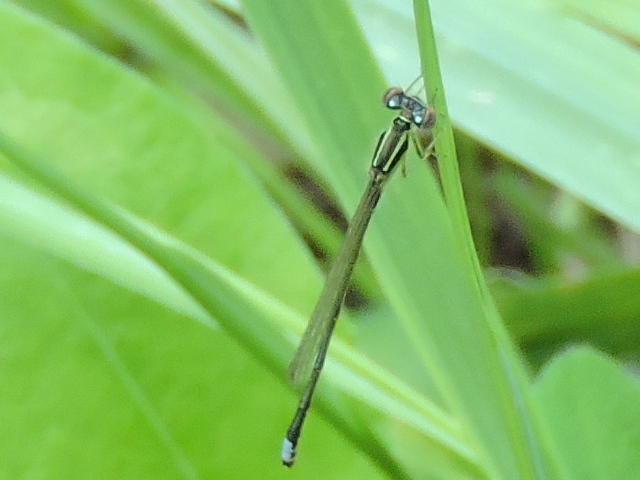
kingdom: Animalia
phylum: Arthropoda
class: Insecta
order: Odonata
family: Coenagrionidae
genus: Ischnura
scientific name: Ischnura verticalis
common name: Eastern forktail
